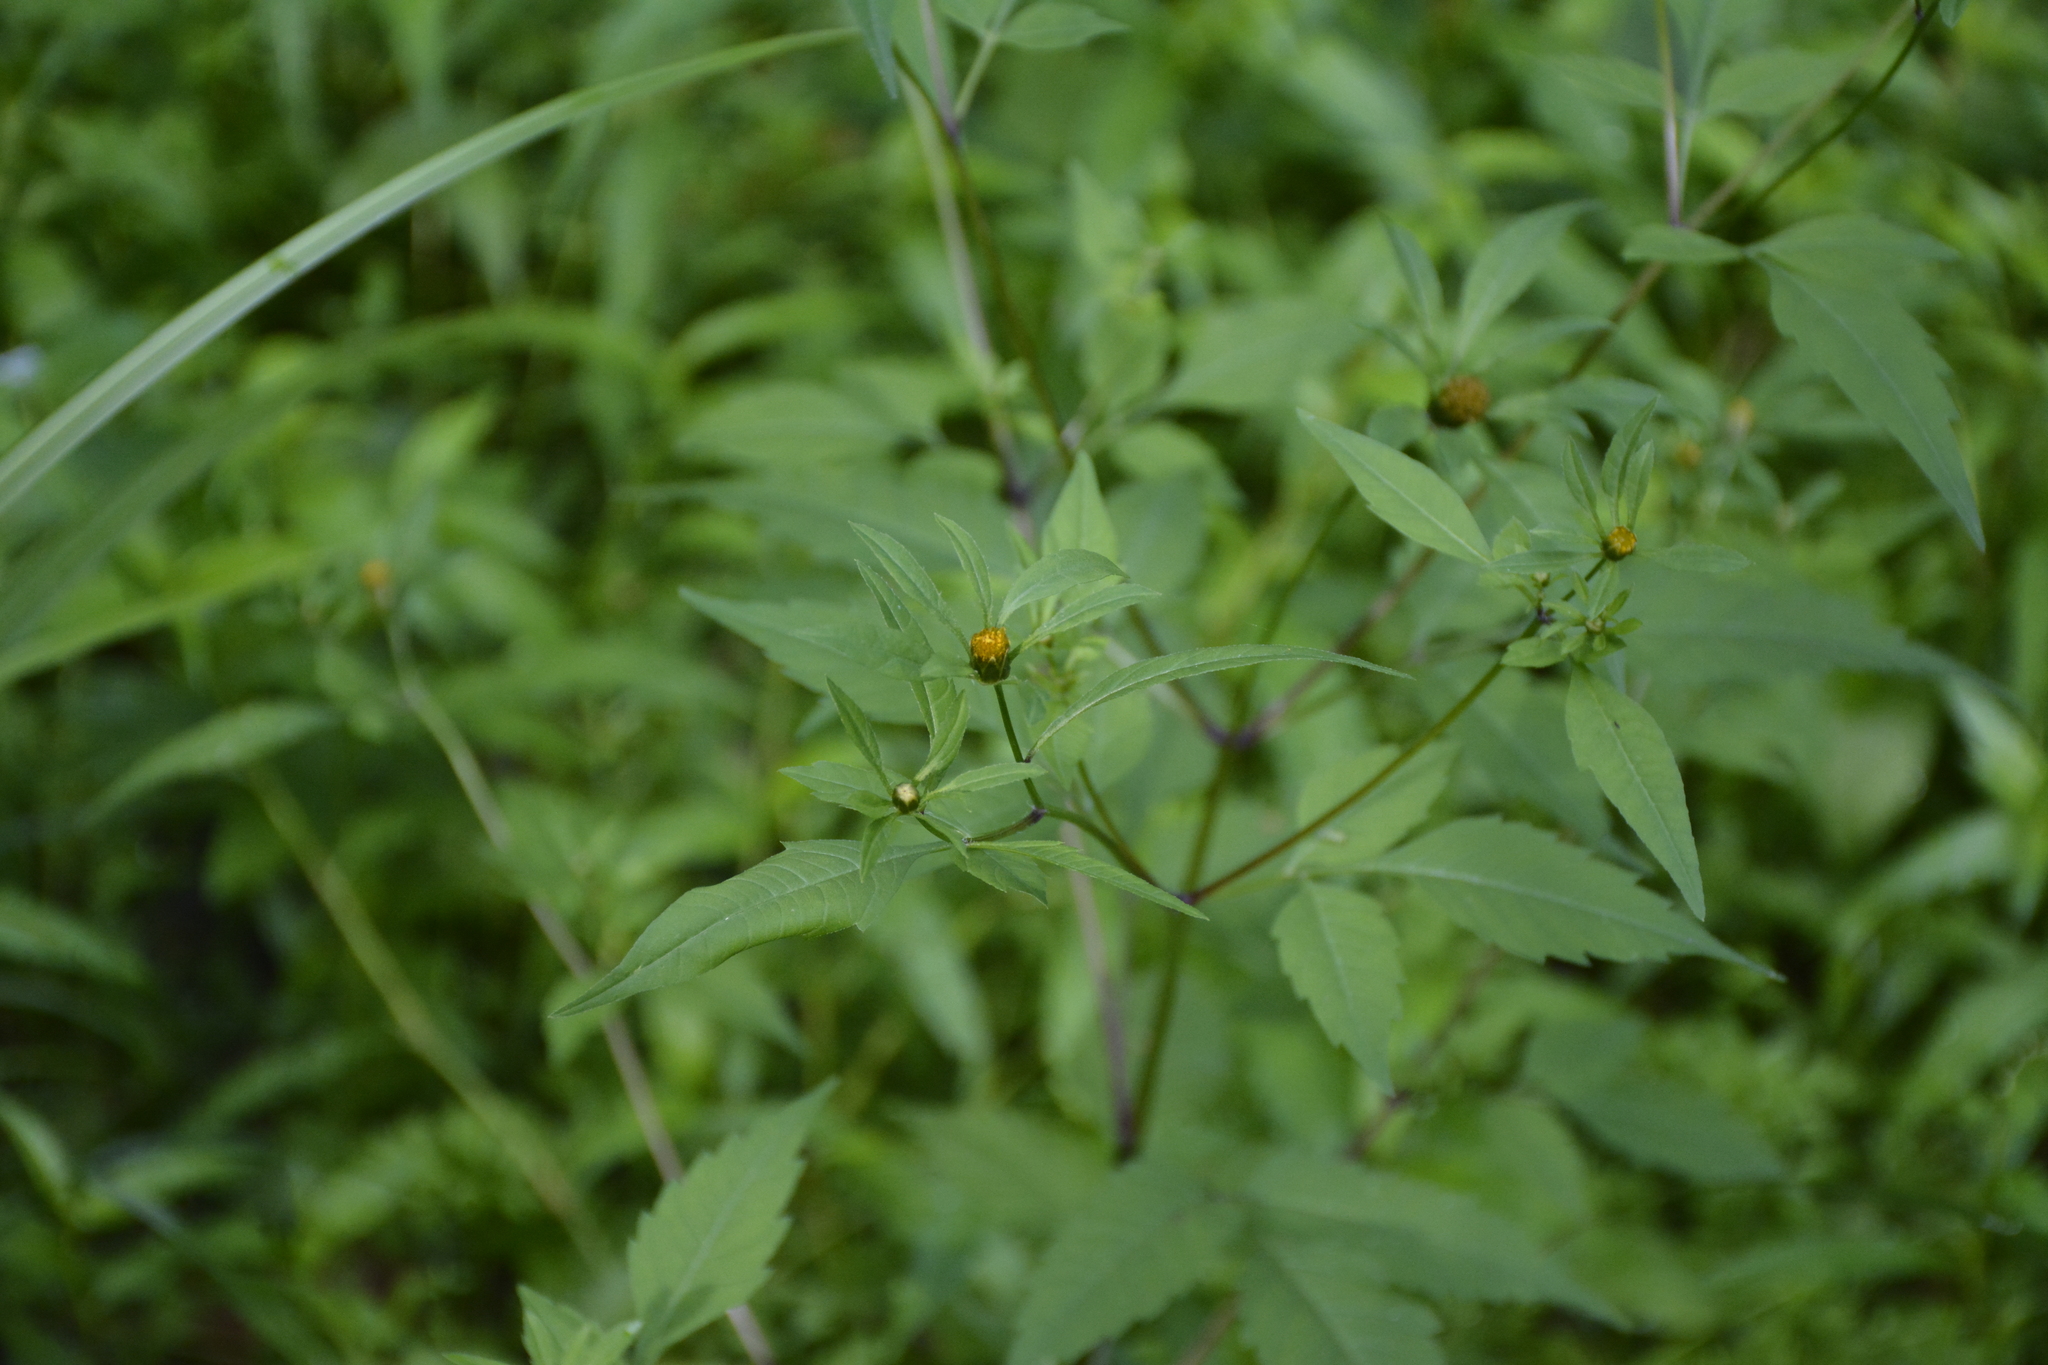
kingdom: Plantae
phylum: Tracheophyta
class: Magnoliopsida
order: Asterales
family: Asteraceae
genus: Bidens
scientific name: Bidens frondosa
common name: Beggarticks
